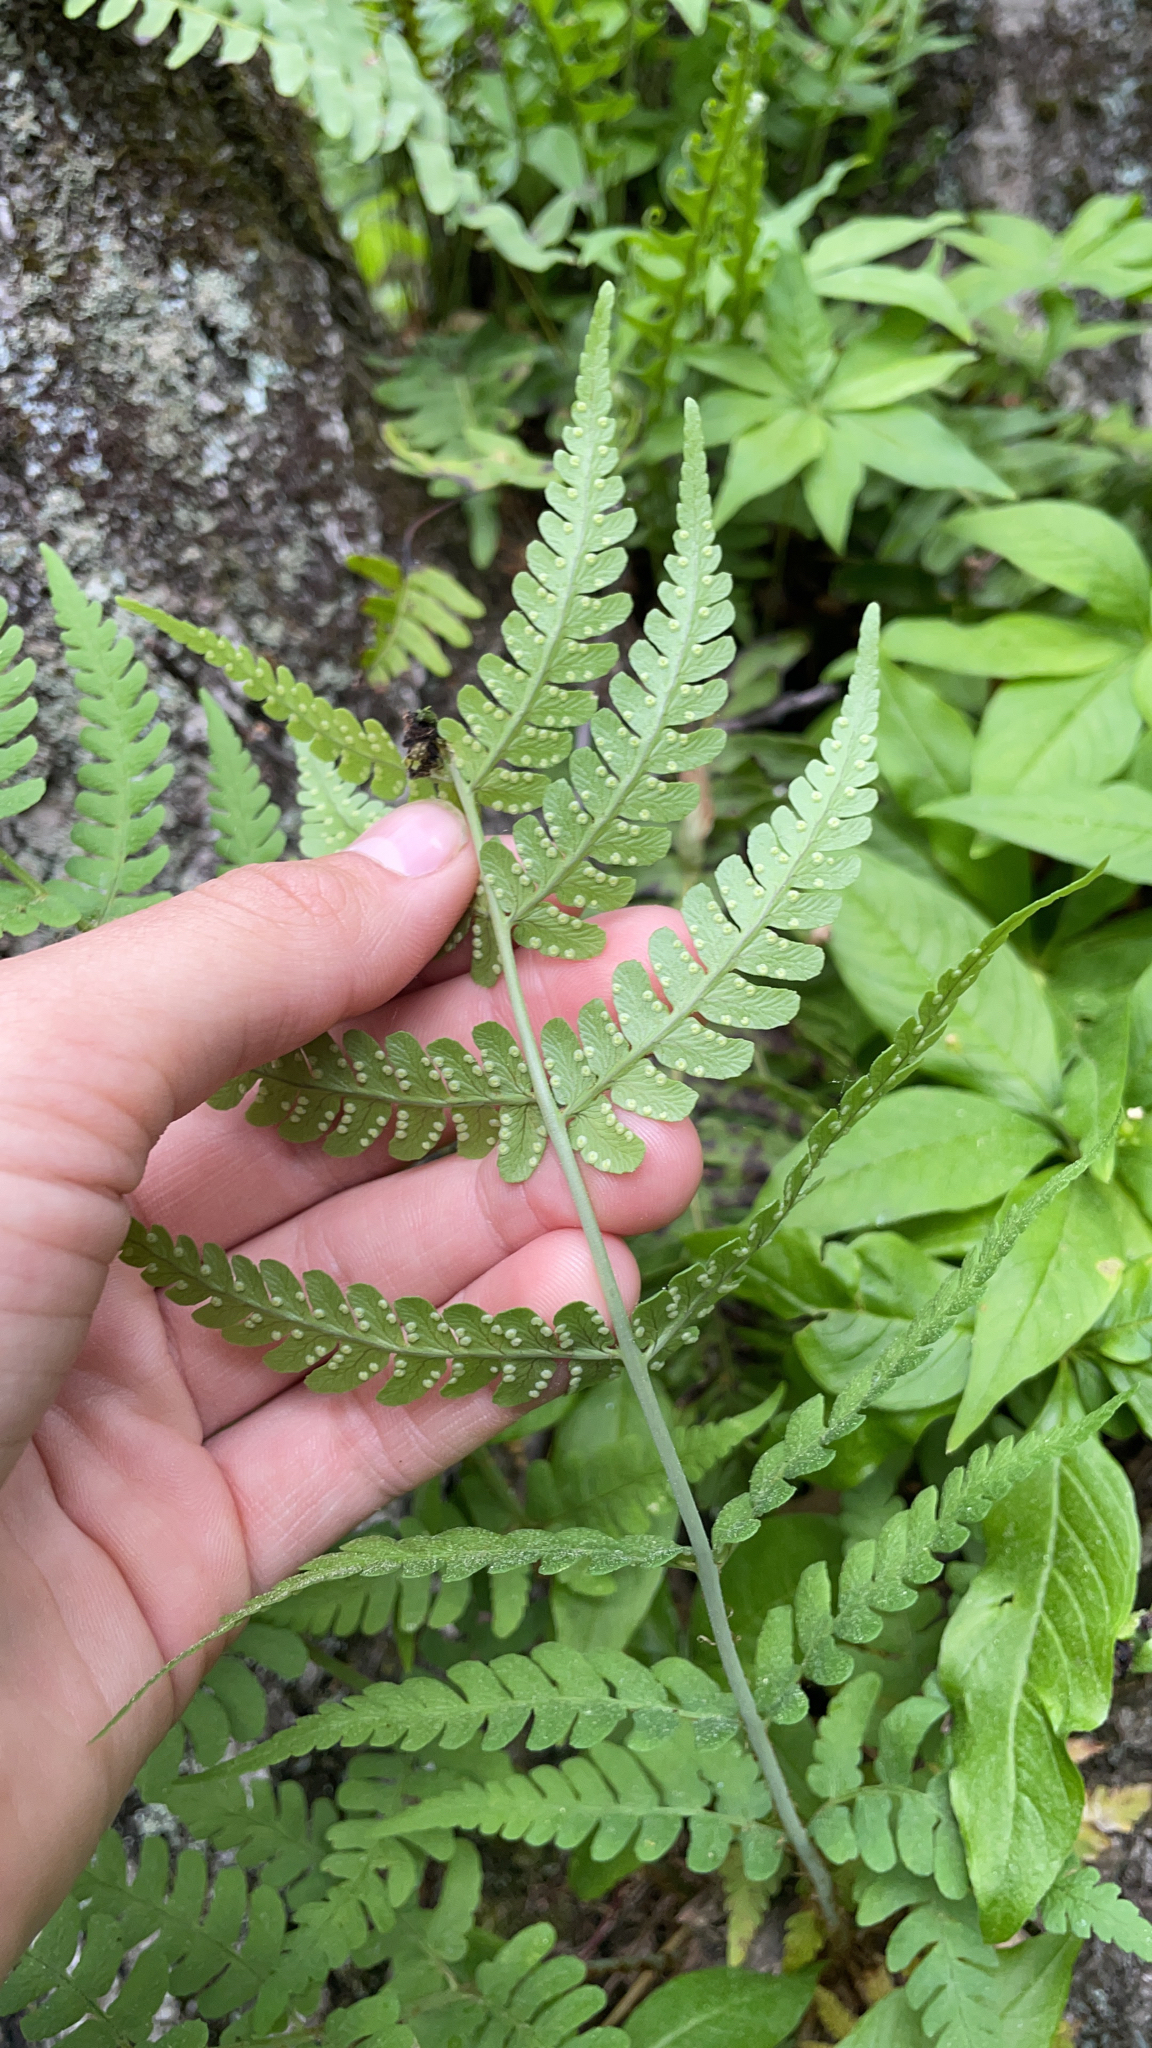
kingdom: Plantae
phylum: Tracheophyta
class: Polypodiopsida
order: Polypodiales
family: Dryopteridaceae
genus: Dryopteris
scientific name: Dryopteris marginalis
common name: Marginal wood fern
